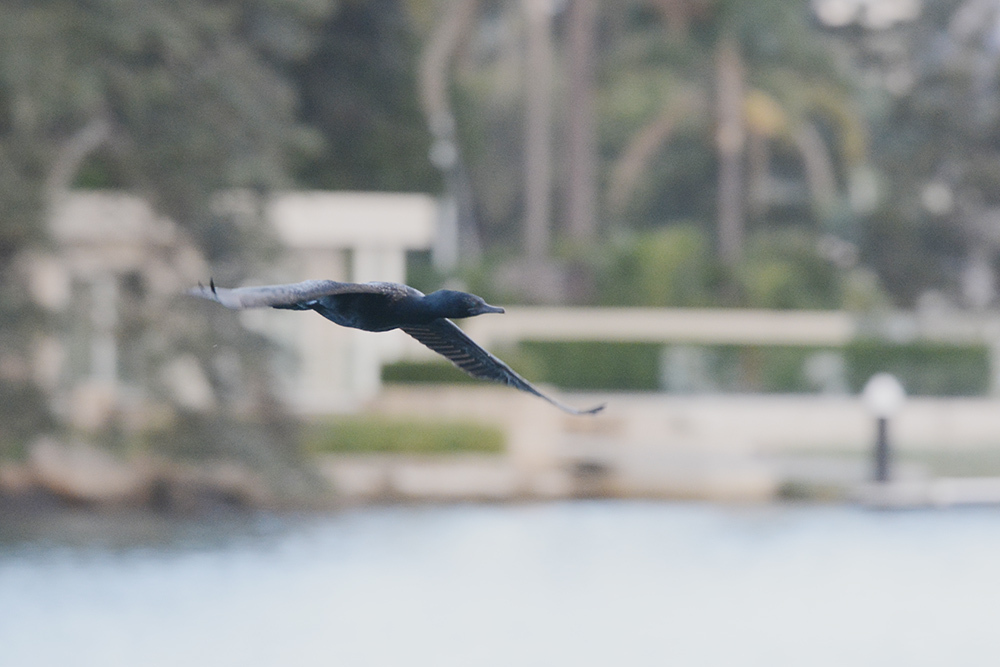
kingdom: Animalia
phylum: Chordata
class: Aves
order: Suliformes
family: Phalacrocoracidae
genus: Phalacrocorax
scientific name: Phalacrocorax sulcirostris
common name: Little black cormorant
